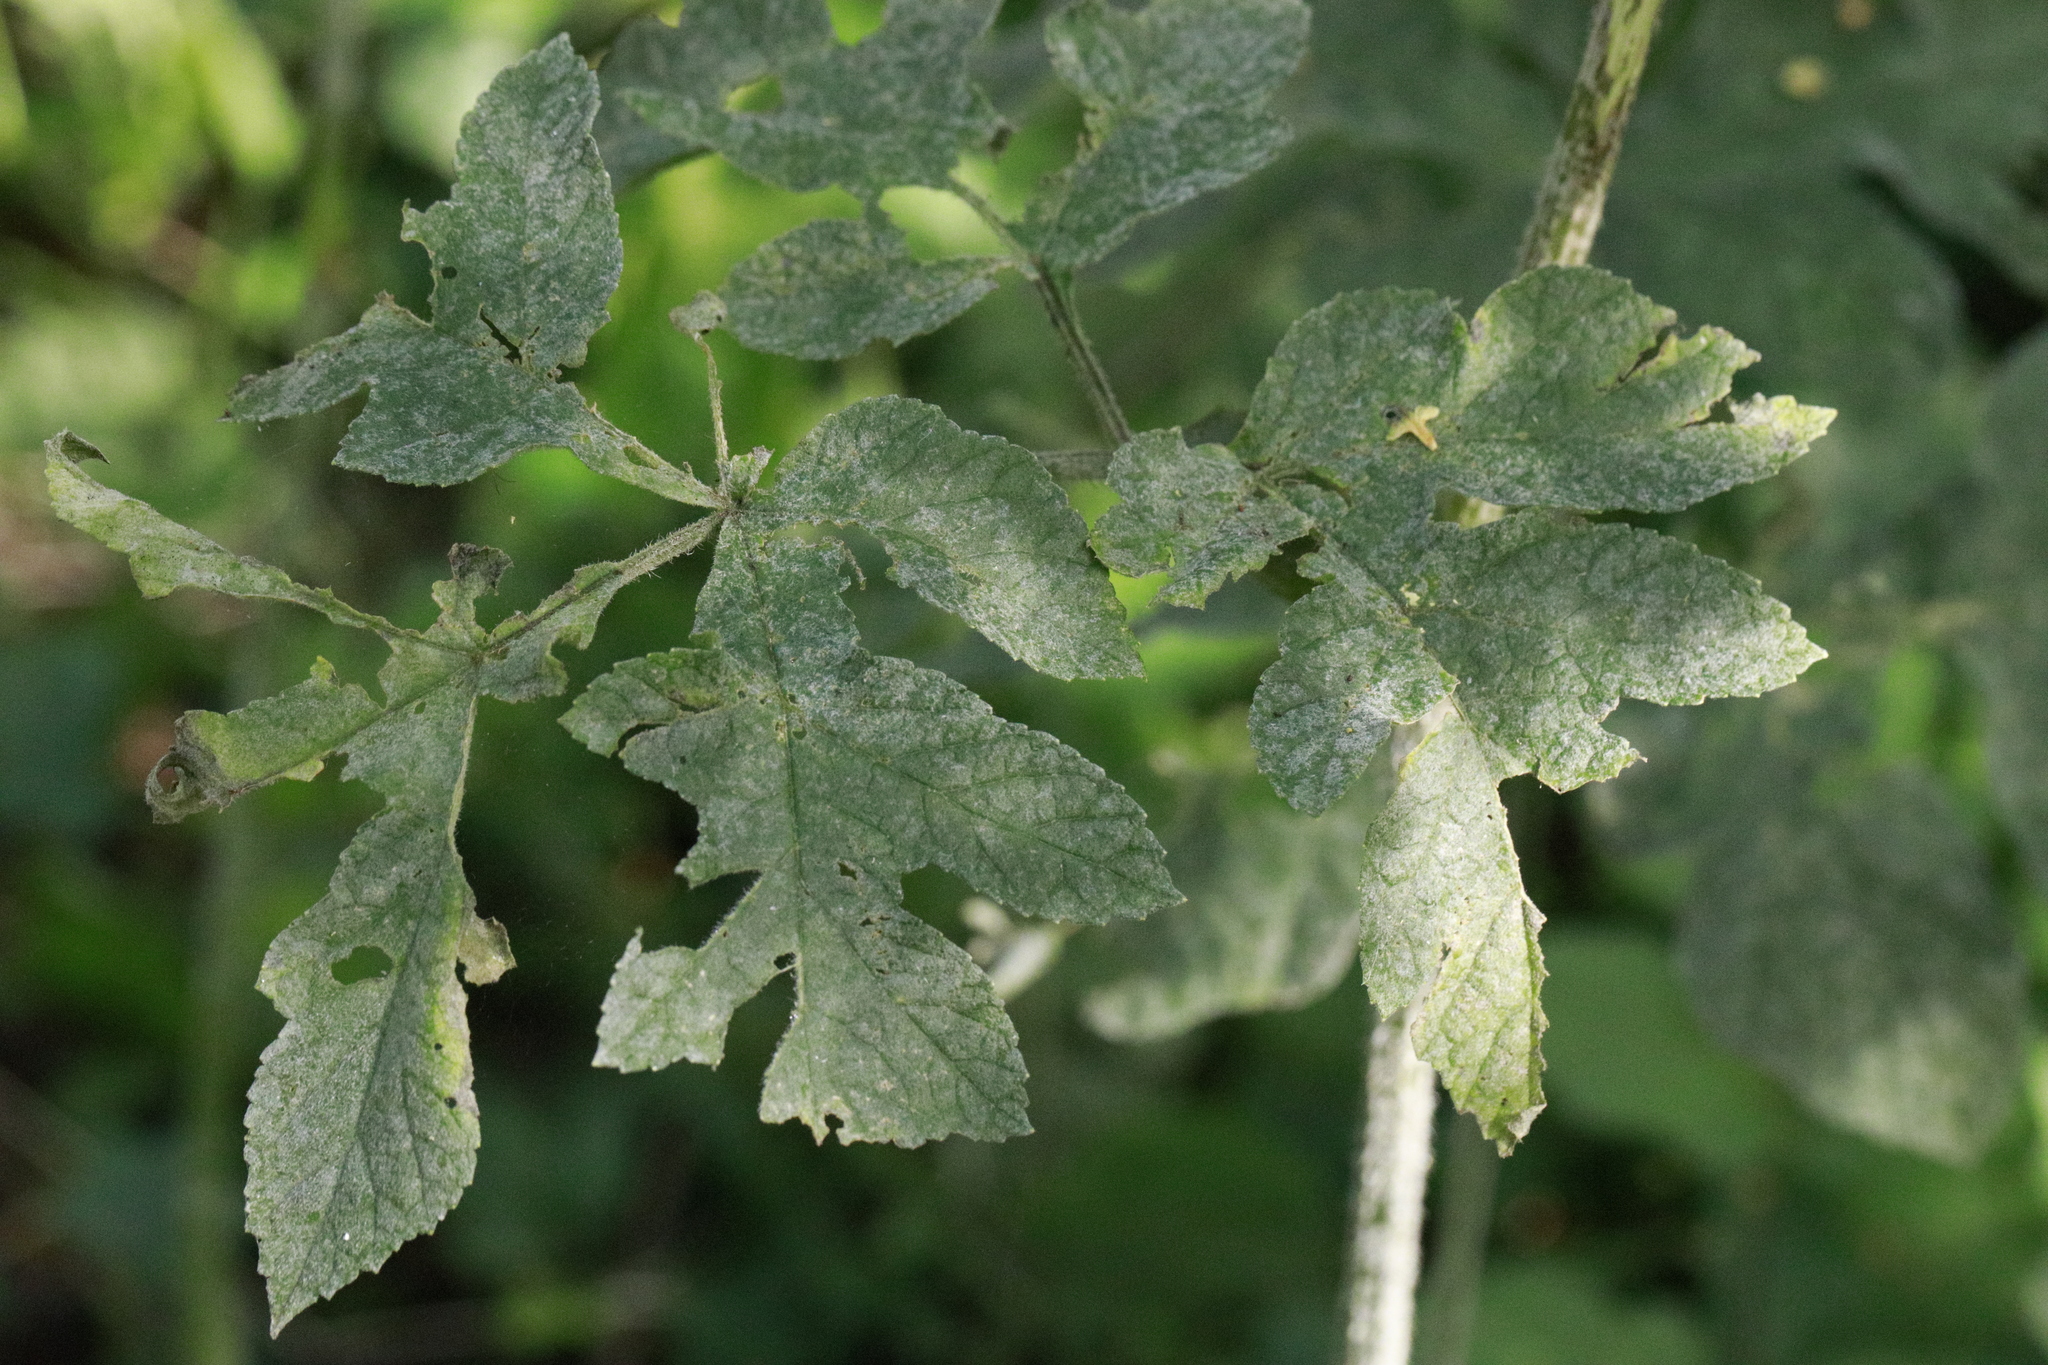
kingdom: Fungi
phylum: Ascomycota
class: Leotiomycetes
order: Helotiales
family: Erysiphaceae
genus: Erysiphe
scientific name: Erysiphe heraclei
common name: Umbellifer mildew
